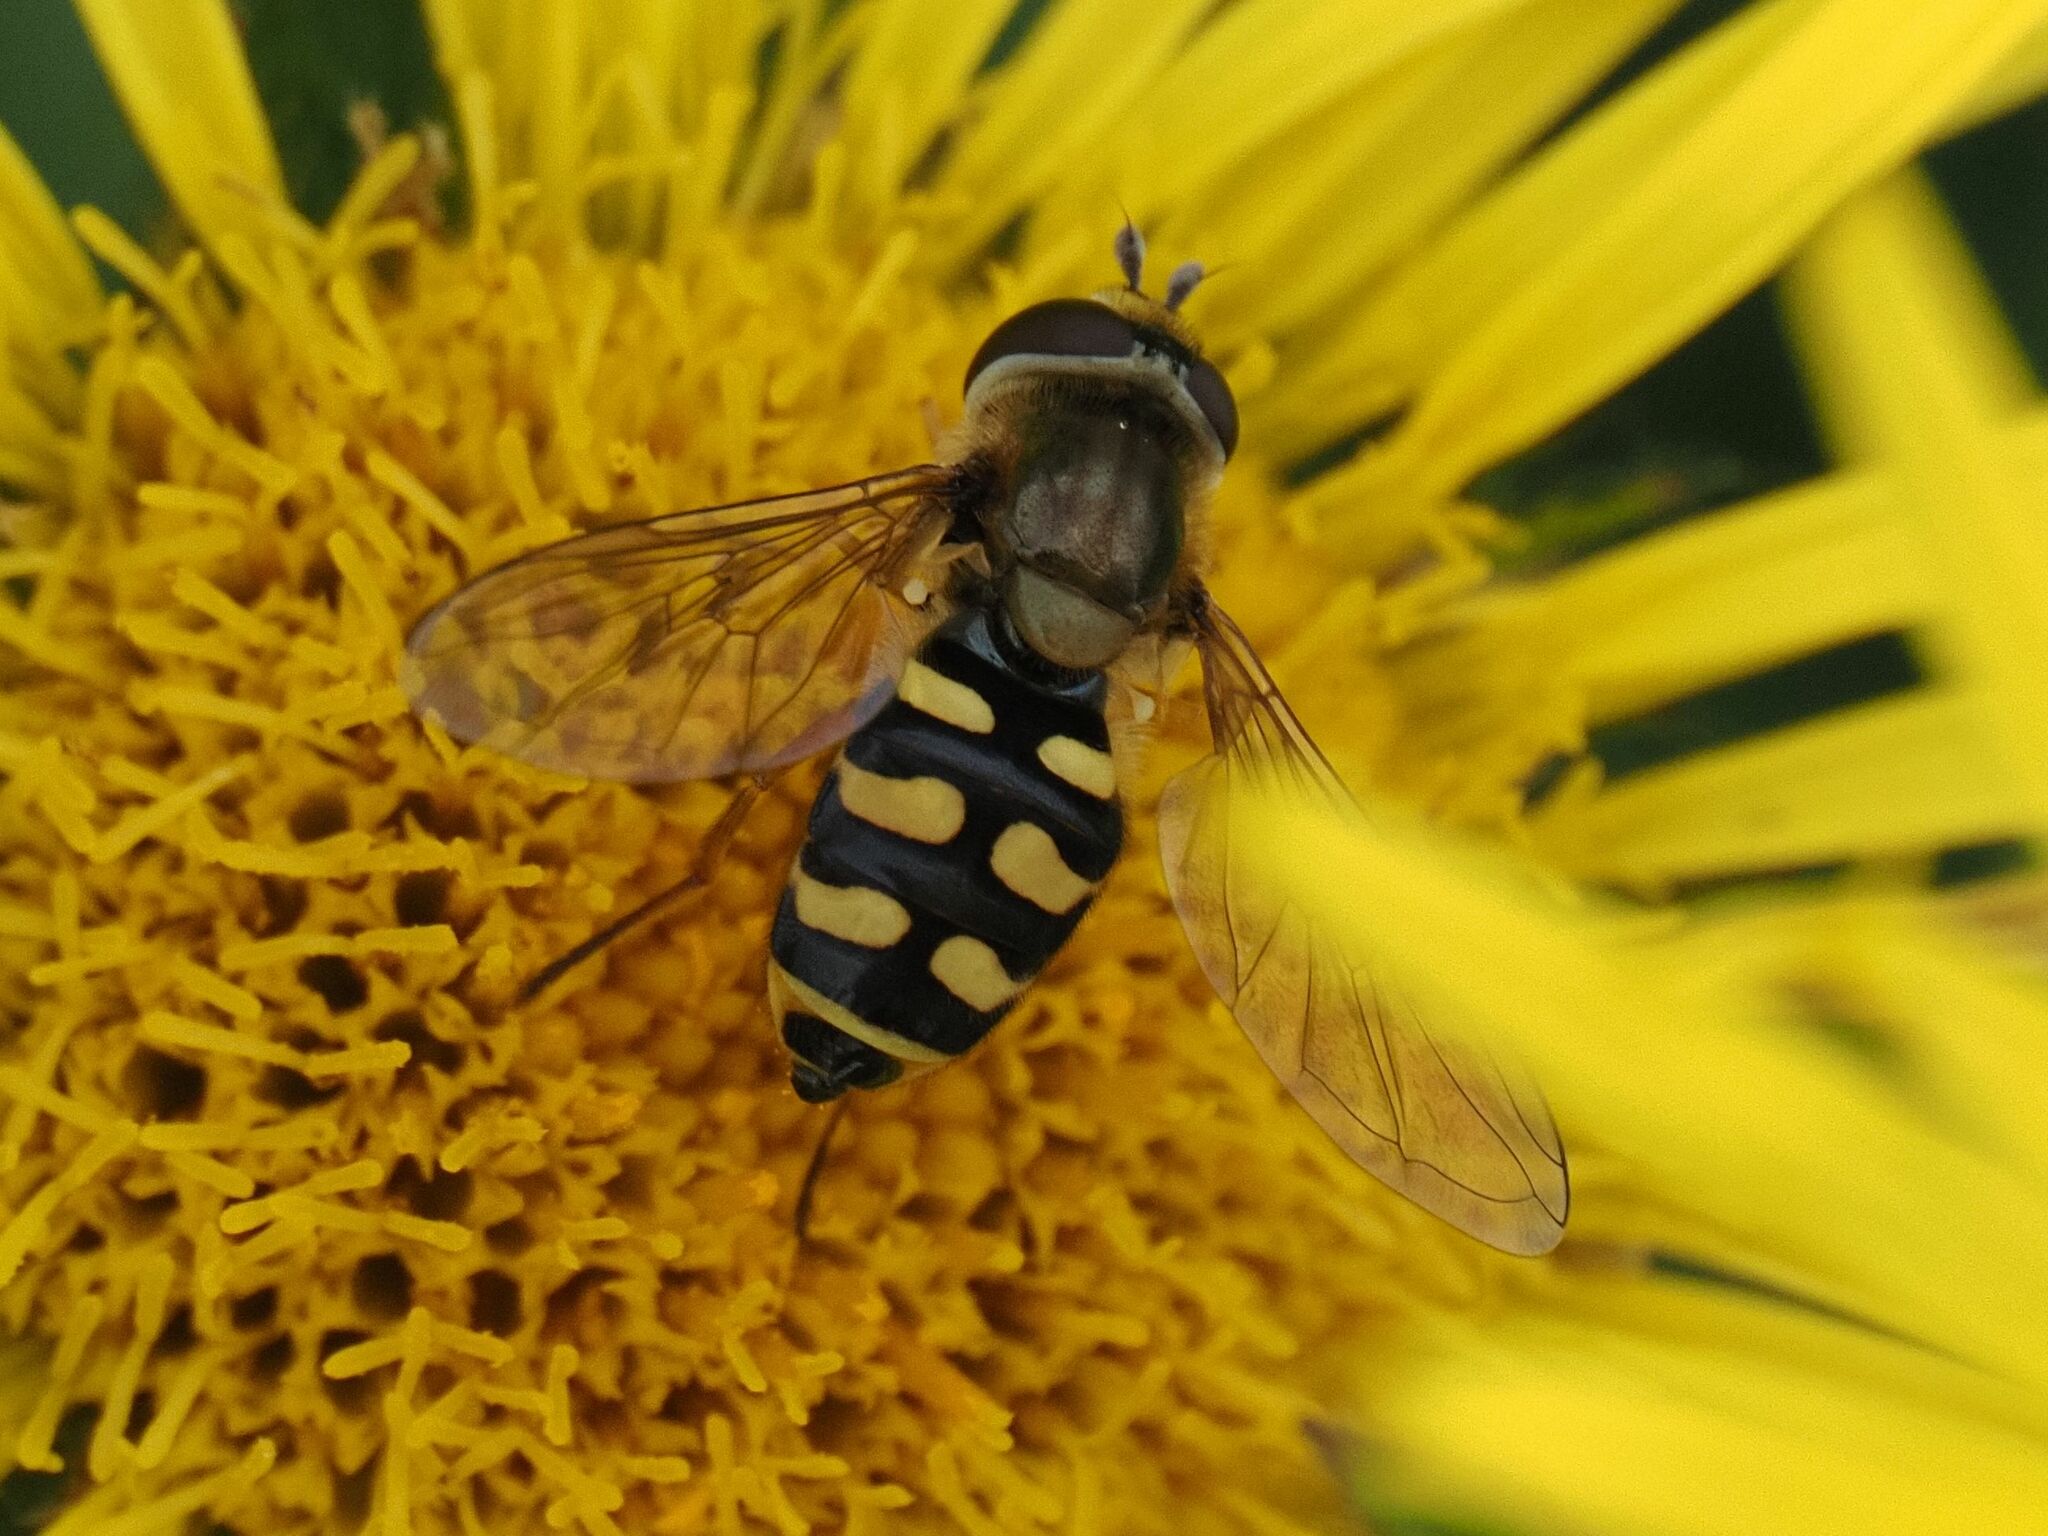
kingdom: Animalia
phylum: Arthropoda
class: Insecta
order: Diptera
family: Syrphidae
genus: Eupeodes
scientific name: Eupeodes corollae
